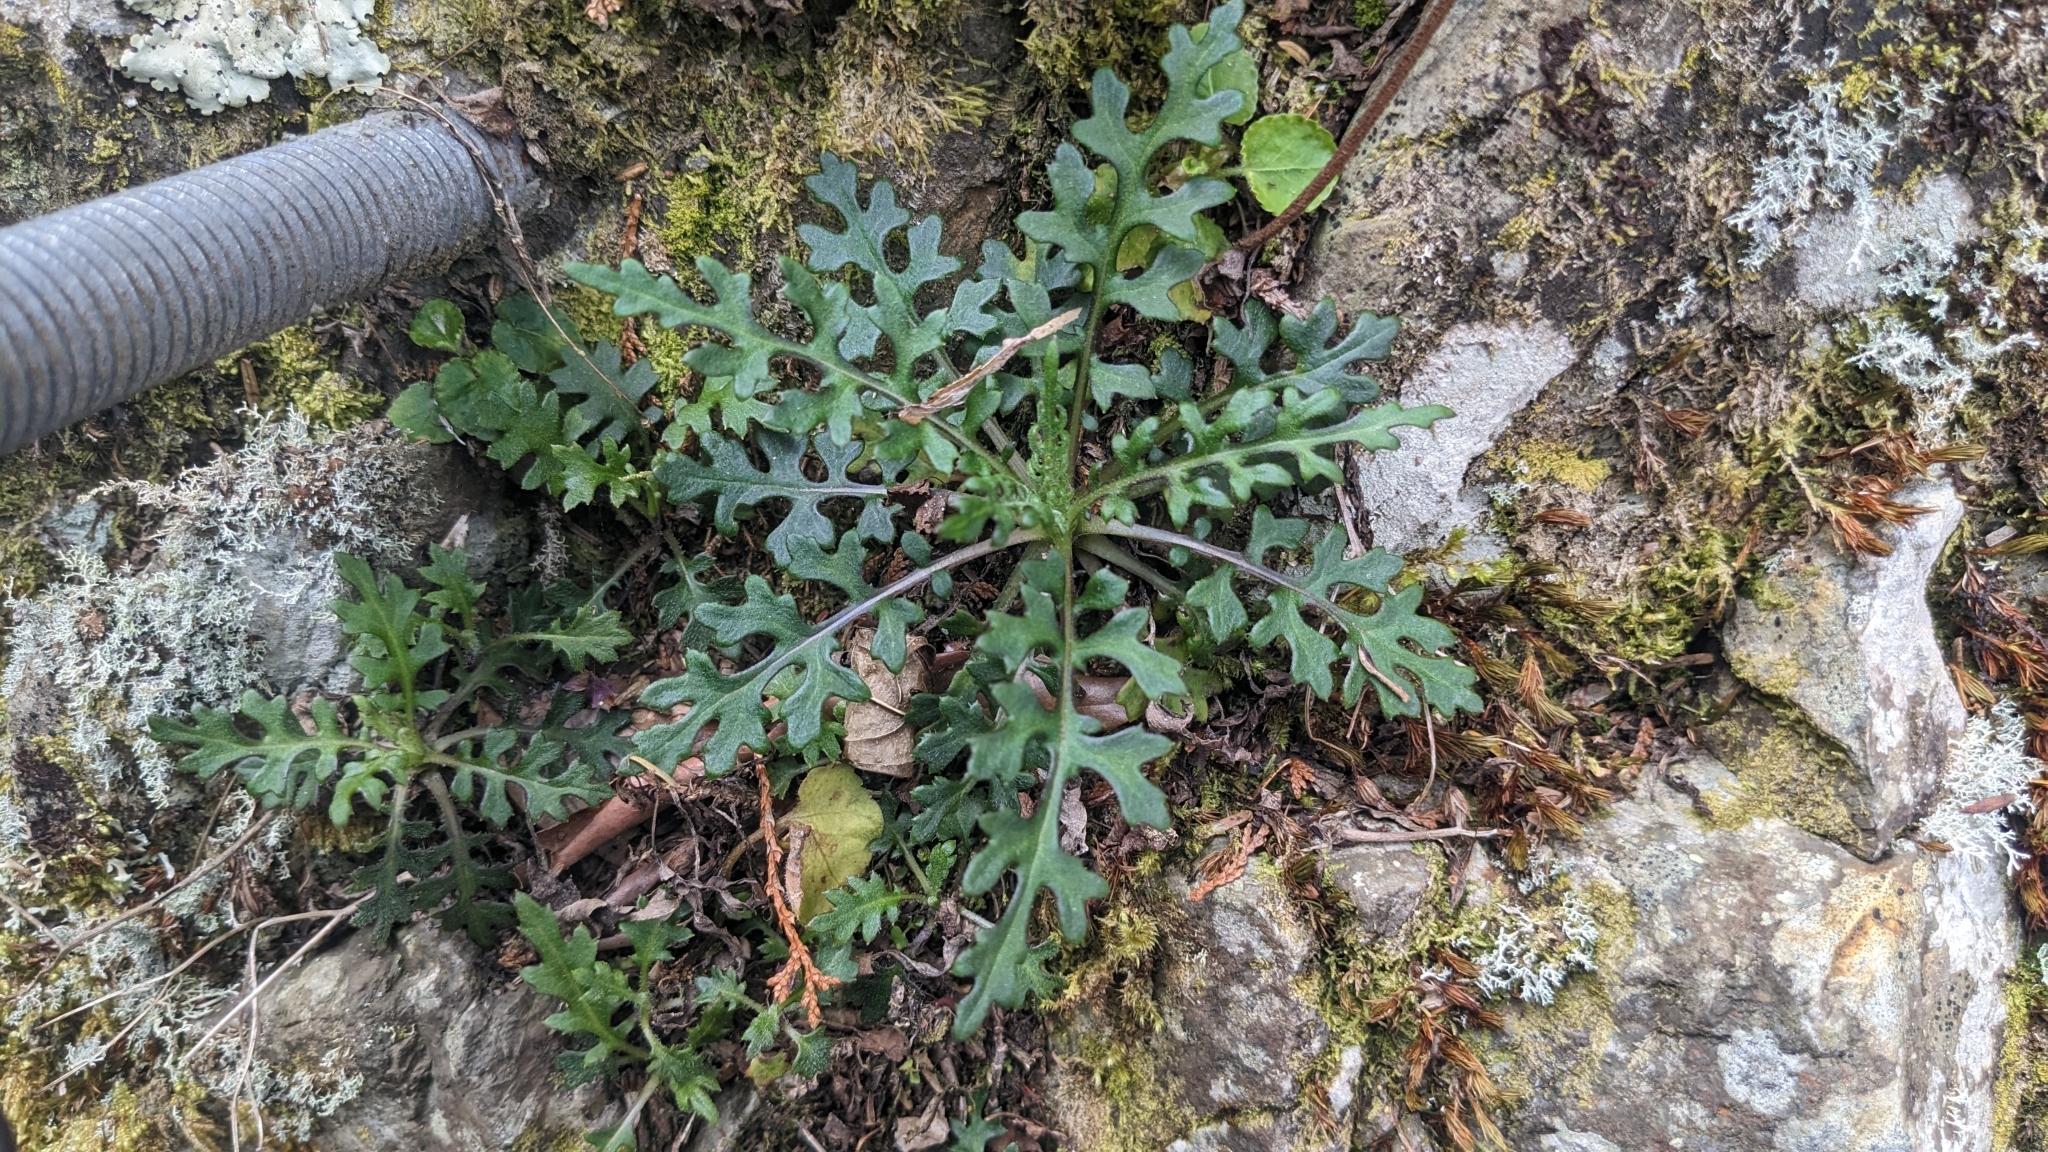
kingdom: Plantae
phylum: Tracheophyta
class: Magnoliopsida
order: Asterales
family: Asteraceae
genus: Jacobaea
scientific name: Jacobaea morrisonensis
